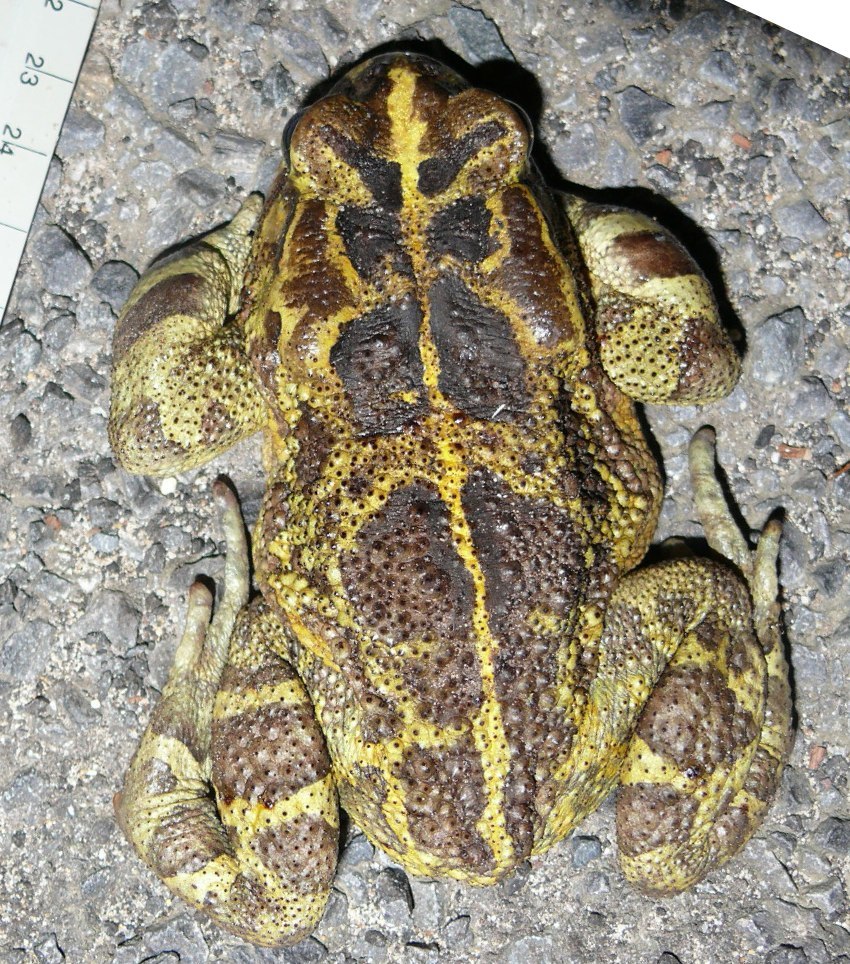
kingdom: Animalia
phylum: Chordata
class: Amphibia
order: Anura
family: Bufonidae
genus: Sclerophrys
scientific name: Sclerophrys pantherina
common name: Panther toad
